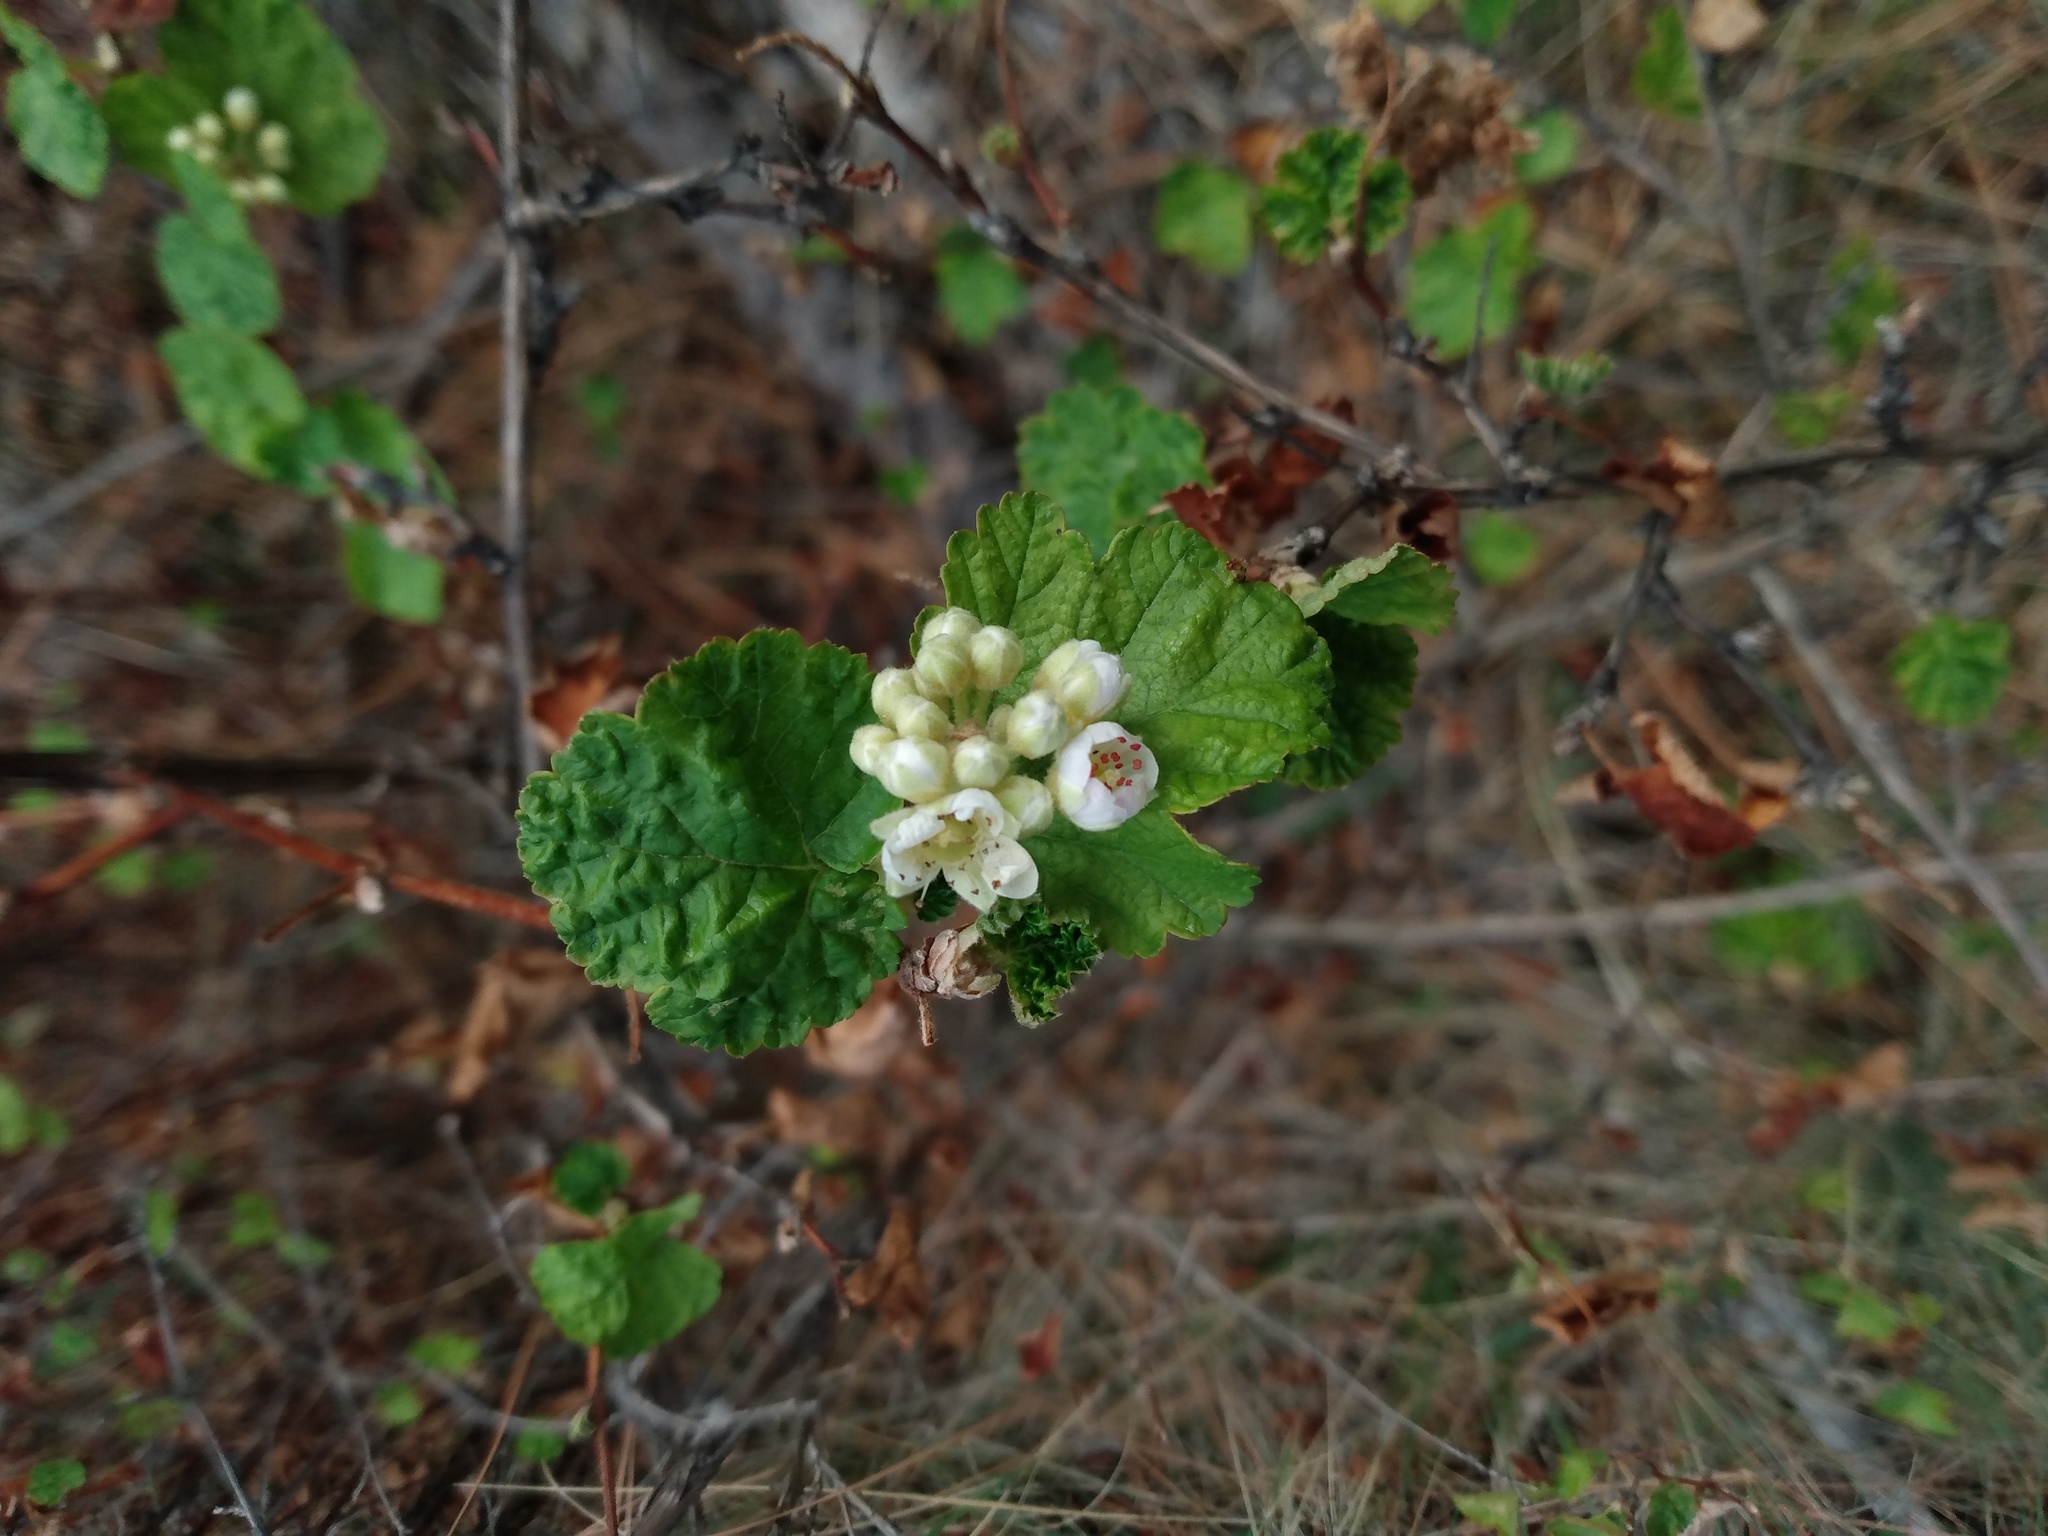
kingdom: Plantae
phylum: Tracheophyta
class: Magnoliopsida
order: Rosales
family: Rosaceae
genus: Physocarpus
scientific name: Physocarpus malvaceus
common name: Mallow ninebark
